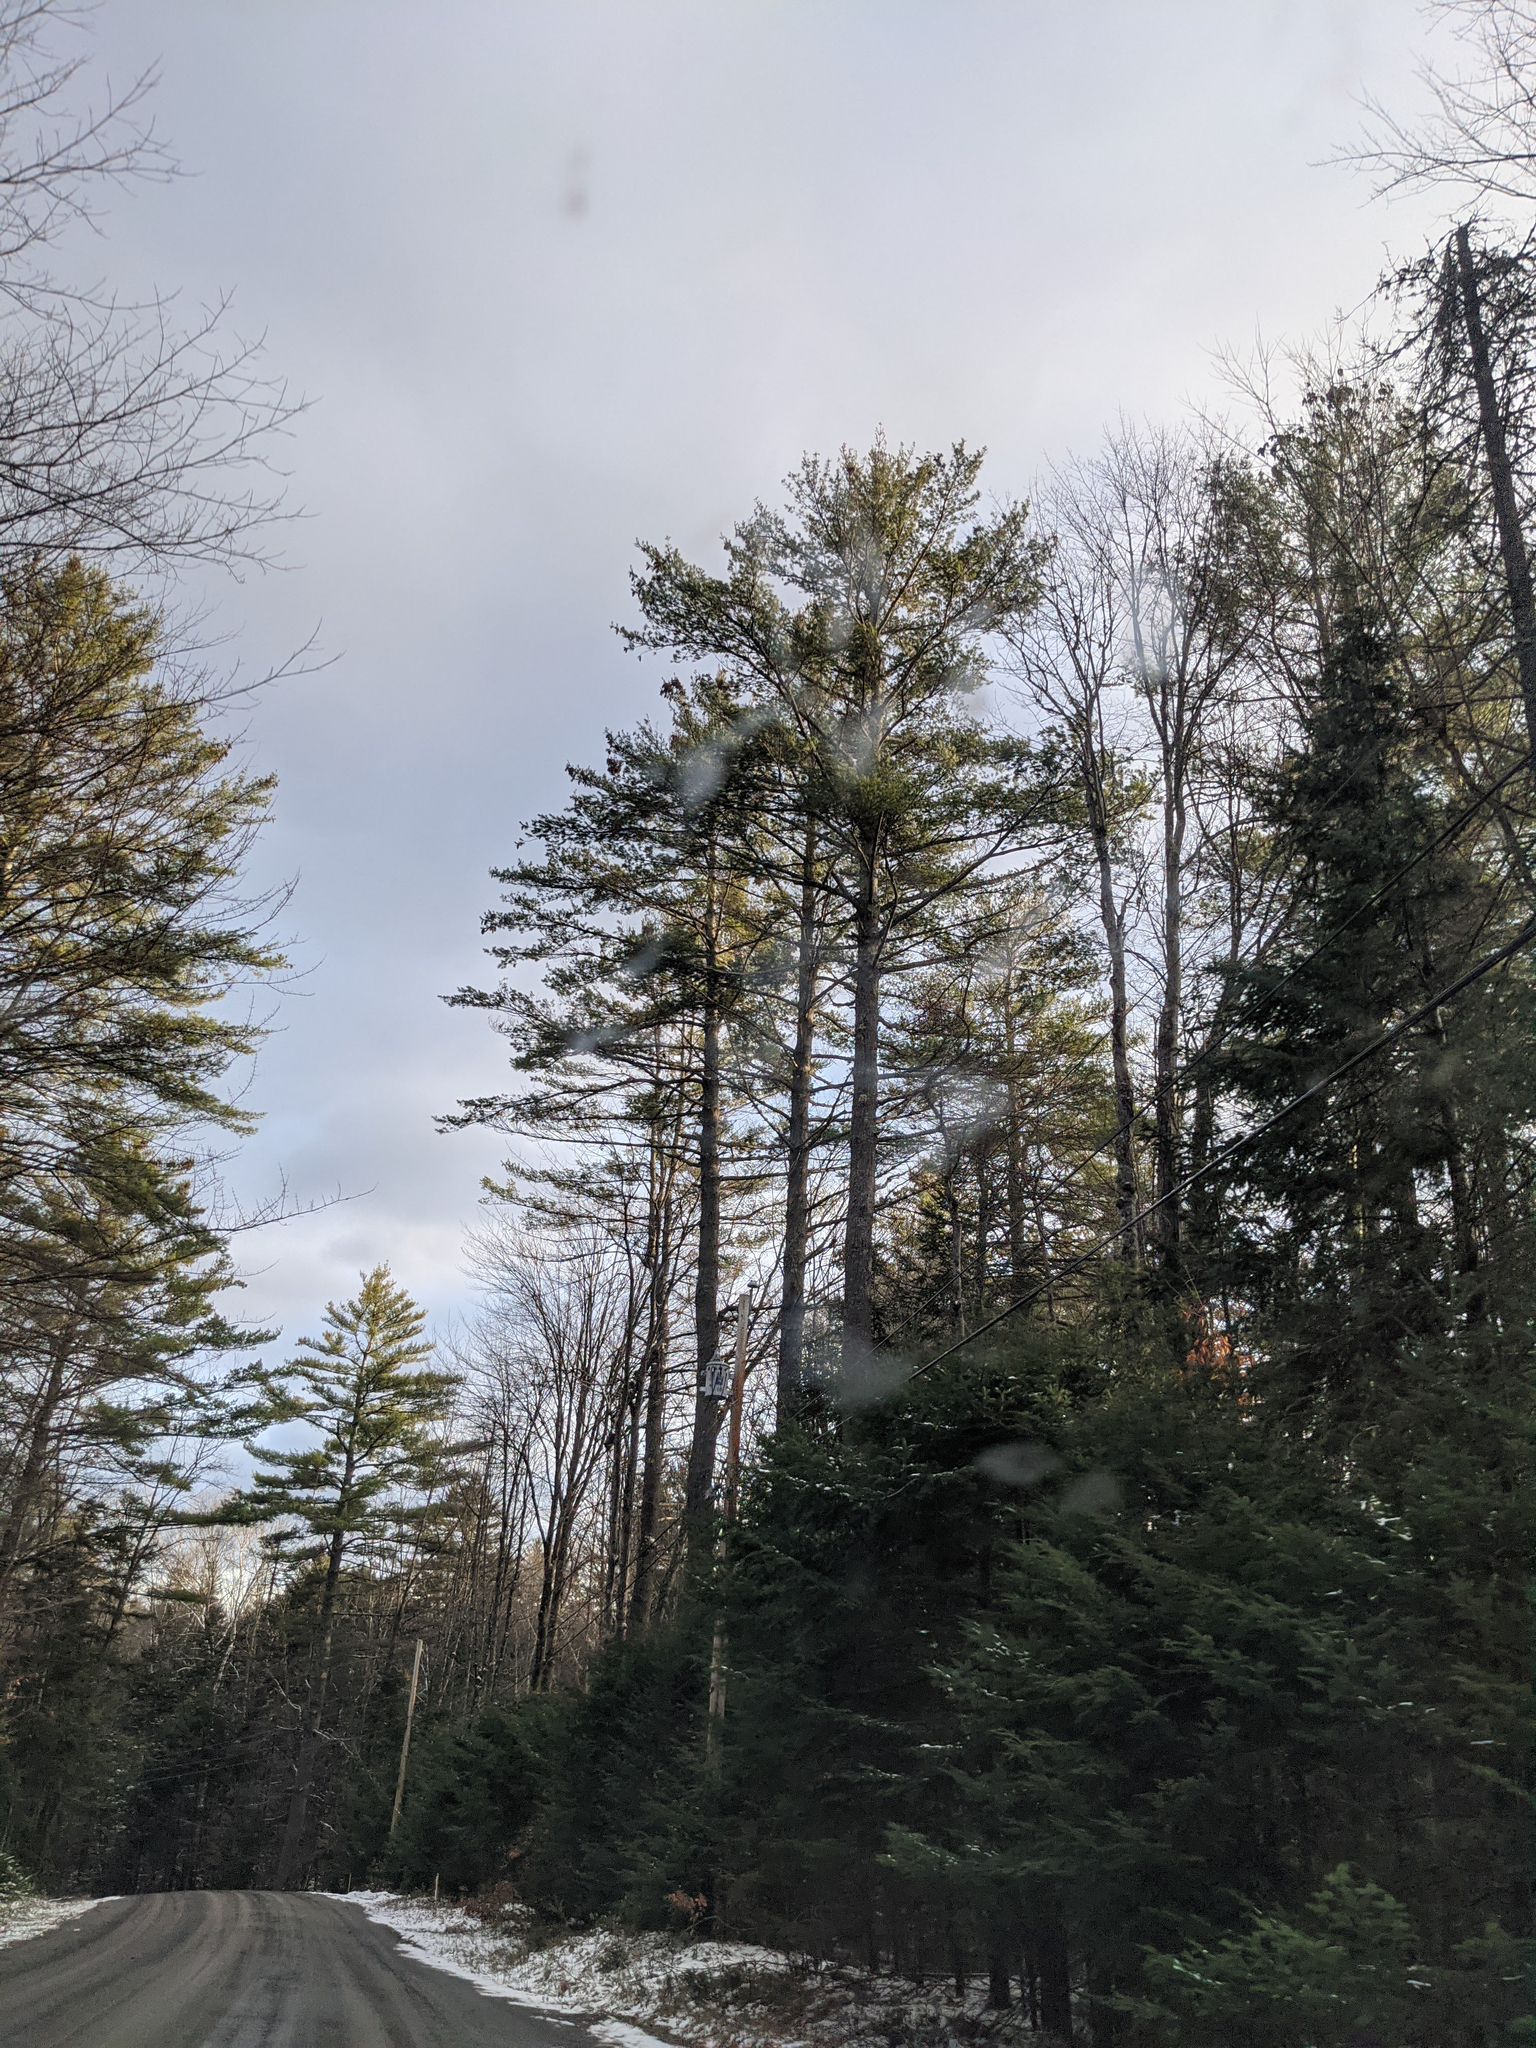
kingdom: Plantae
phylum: Tracheophyta
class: Pinopsida
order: Pinales
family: Pinaceae
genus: Pinus
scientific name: Pinus strobus
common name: Weymouth pine
